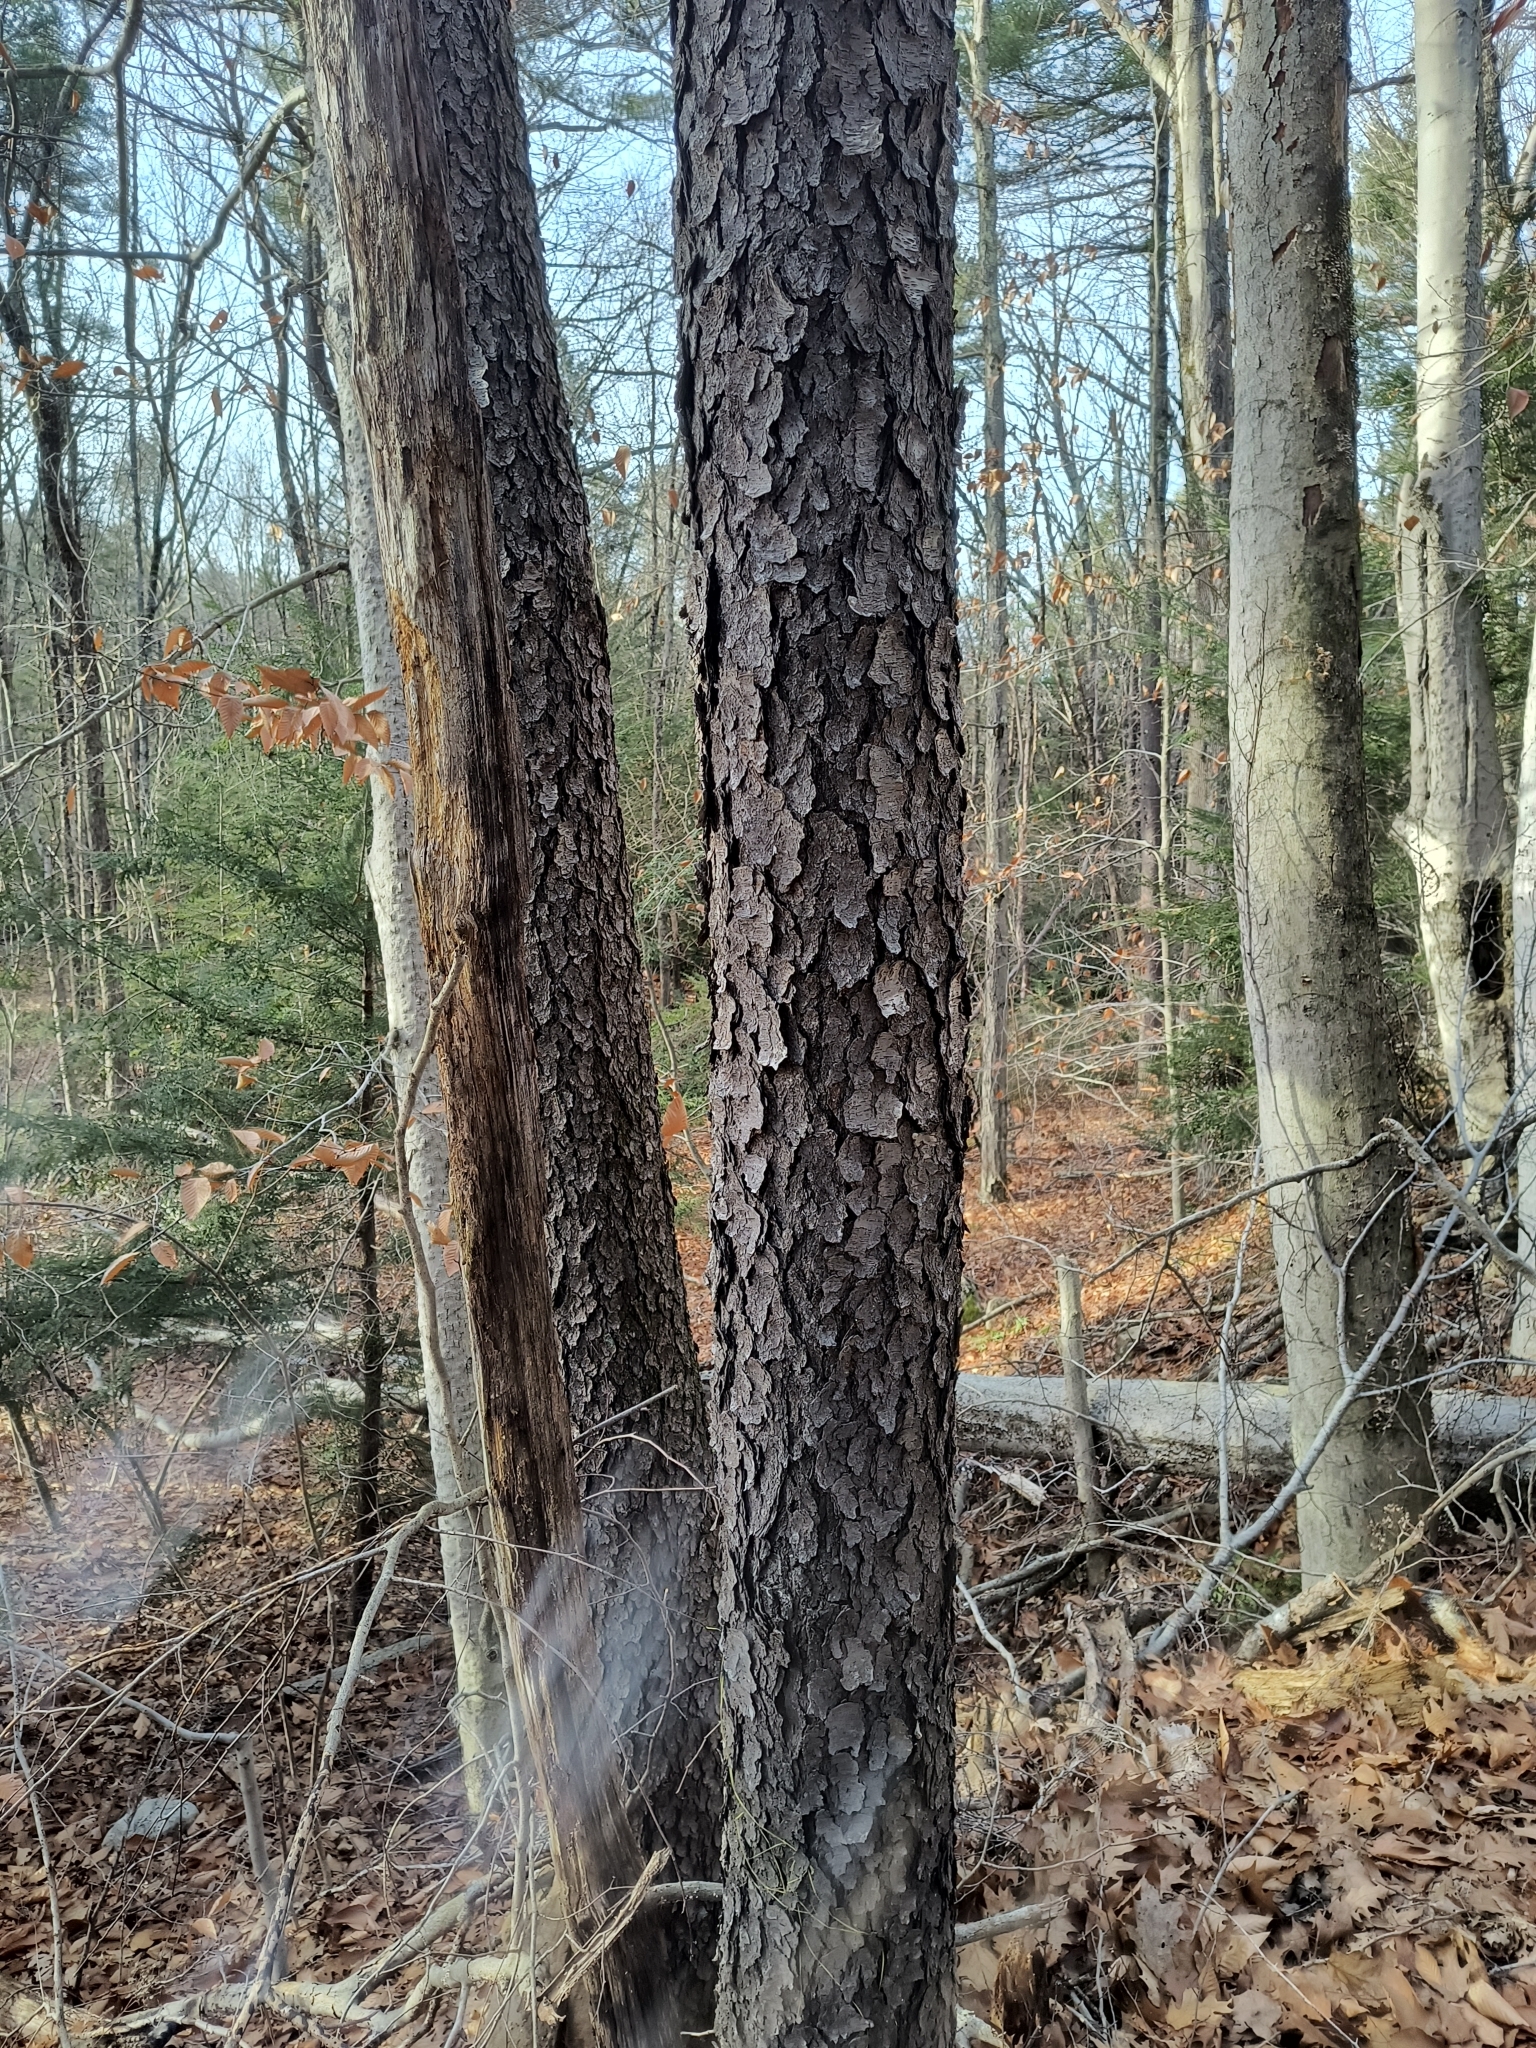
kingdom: Plantae
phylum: Tracheophyta
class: Magnoliopsida
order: Rosales
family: Rosaceae
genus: Prunus
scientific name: Prunus serotina
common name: Black cherry
